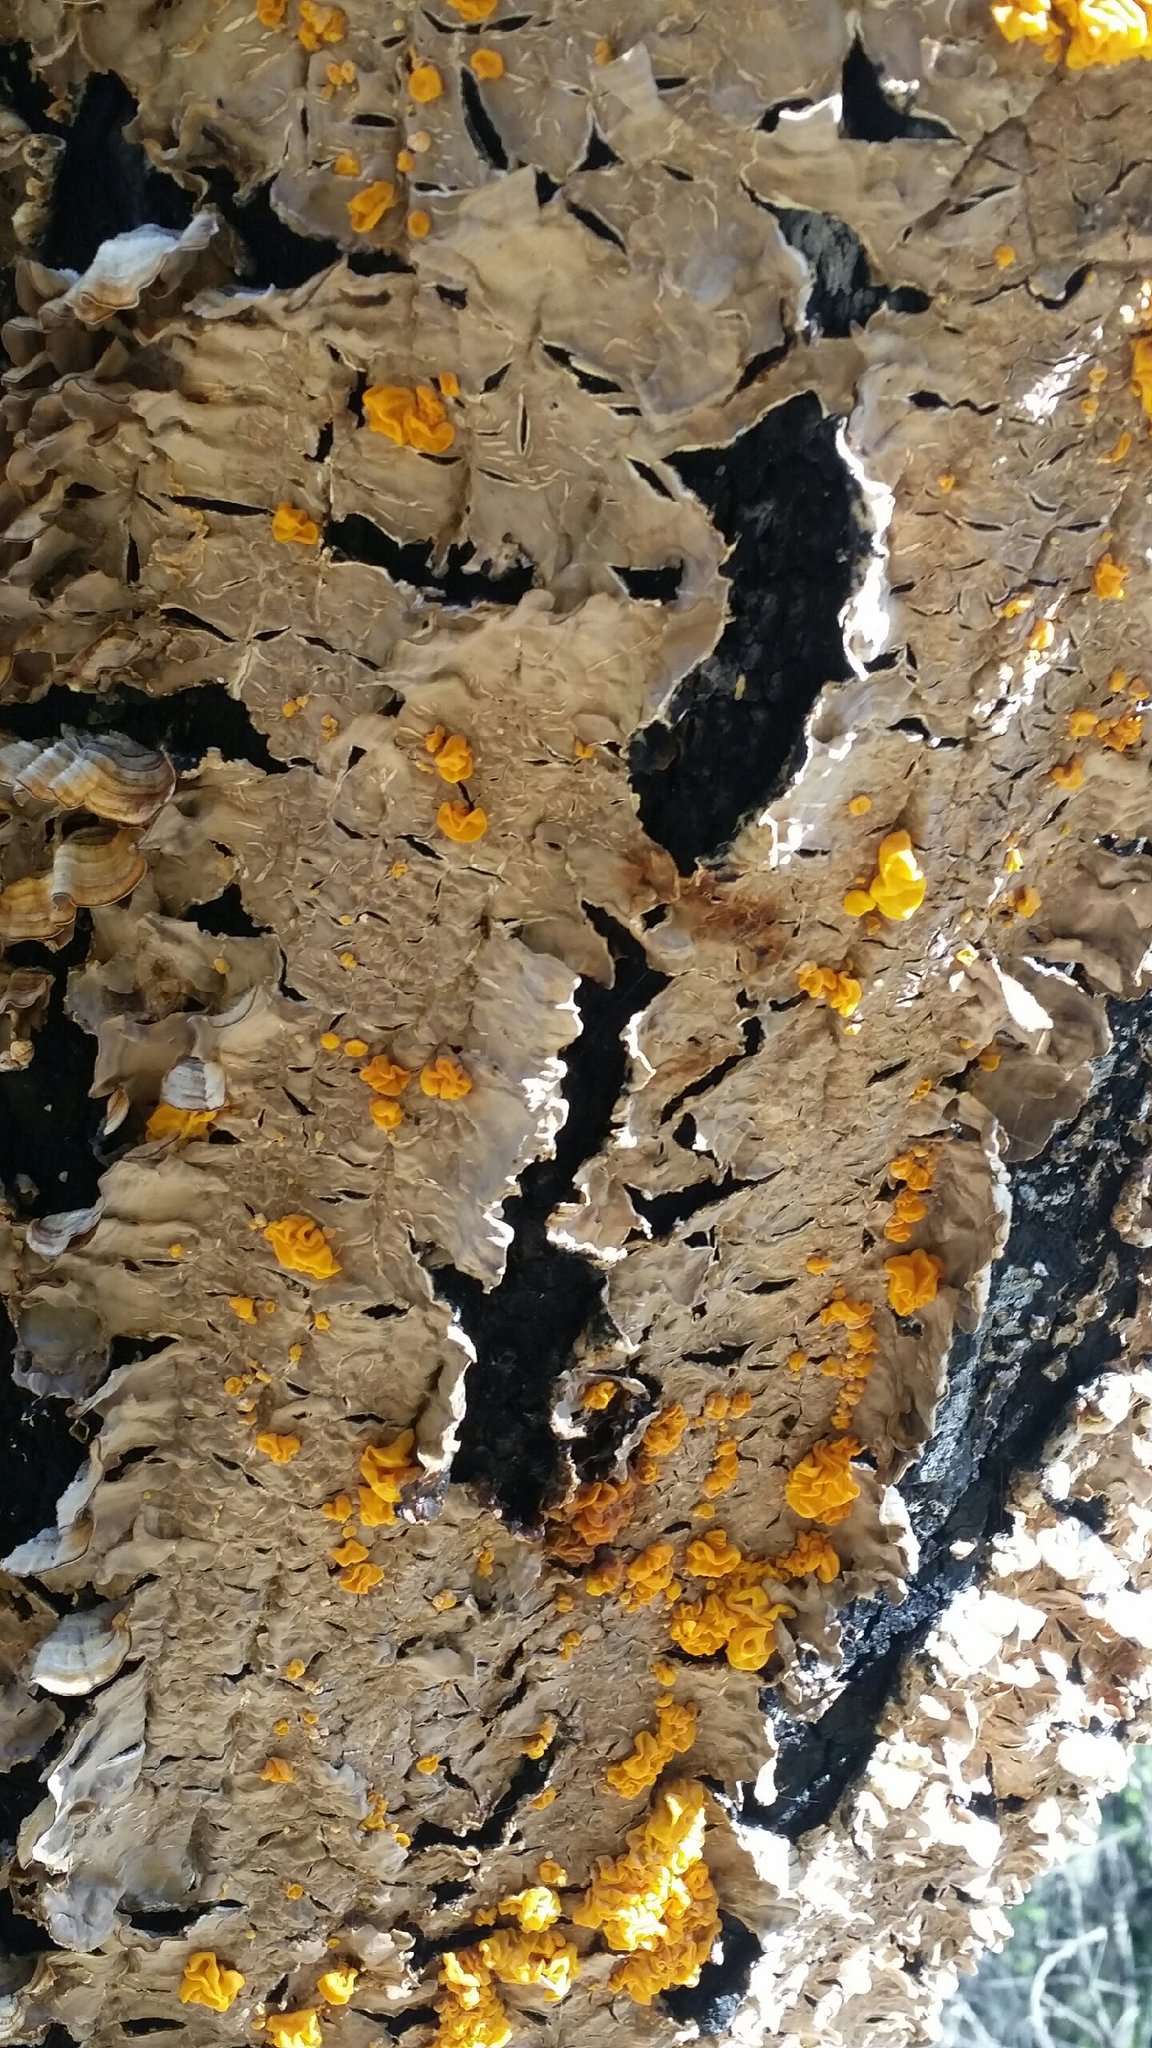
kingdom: Fungi
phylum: Basidiomycota
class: Tremellomycetes
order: Tremellales
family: Naemateliaceae
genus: Naematelia
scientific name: Naematelia aurantia
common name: Golden ear
